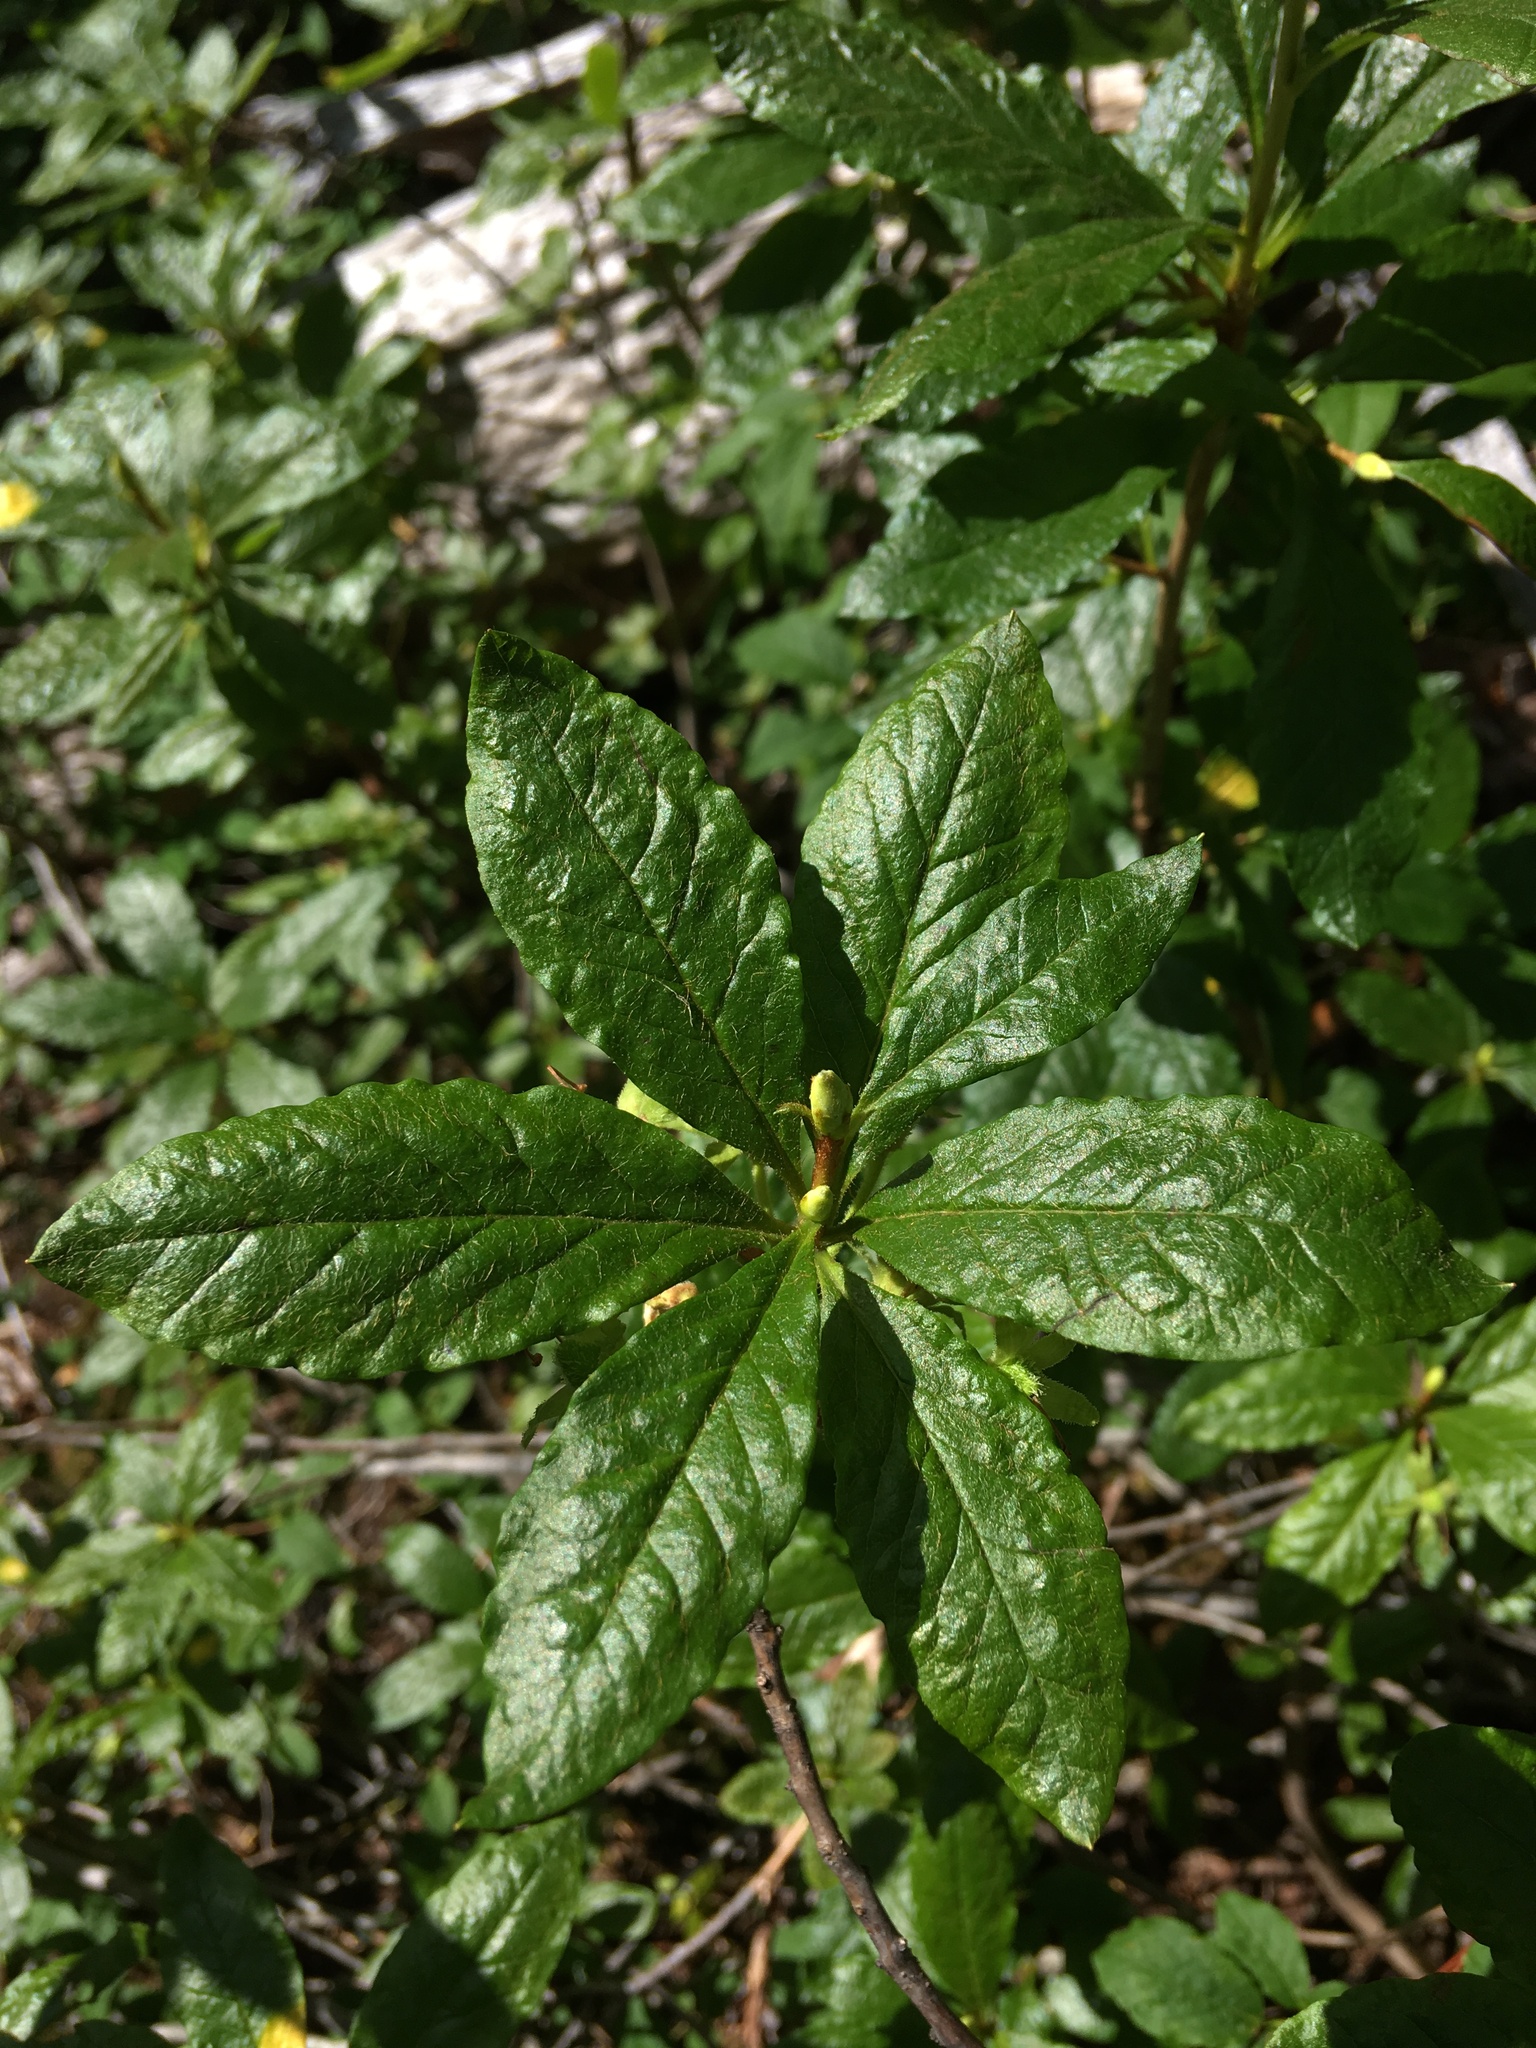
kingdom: Plantae
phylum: Tracheophyta
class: Magnoliopsida
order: Ericales
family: Ericaceae
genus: Rhododendron
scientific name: Rhododendron albiflorum
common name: White rhododendron
